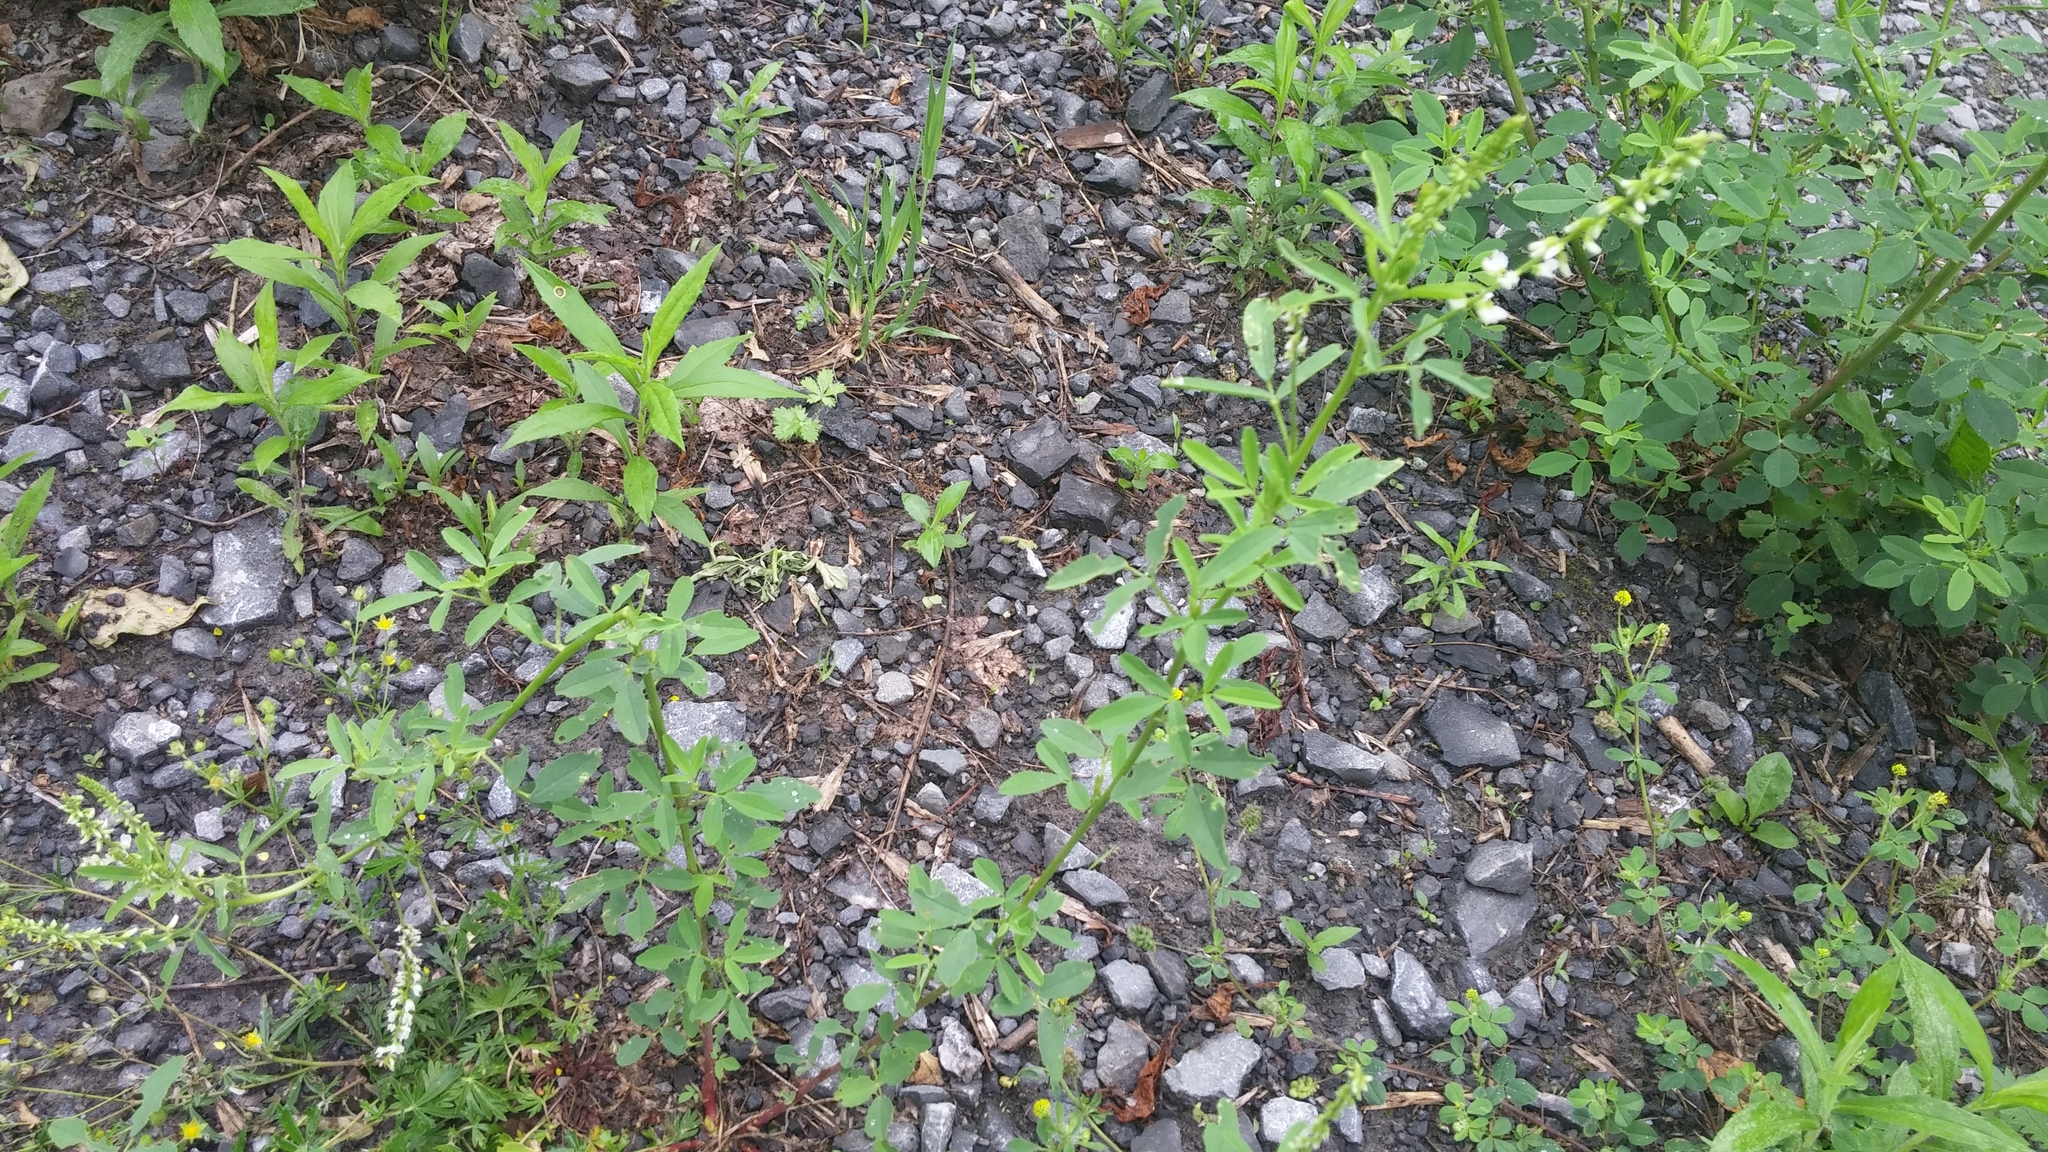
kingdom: Plantae
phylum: Tracheophyta
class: Magnoliopsida
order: Fabales
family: Fabaceae
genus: Melilotus
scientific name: Melilotus albus
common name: White melilot
